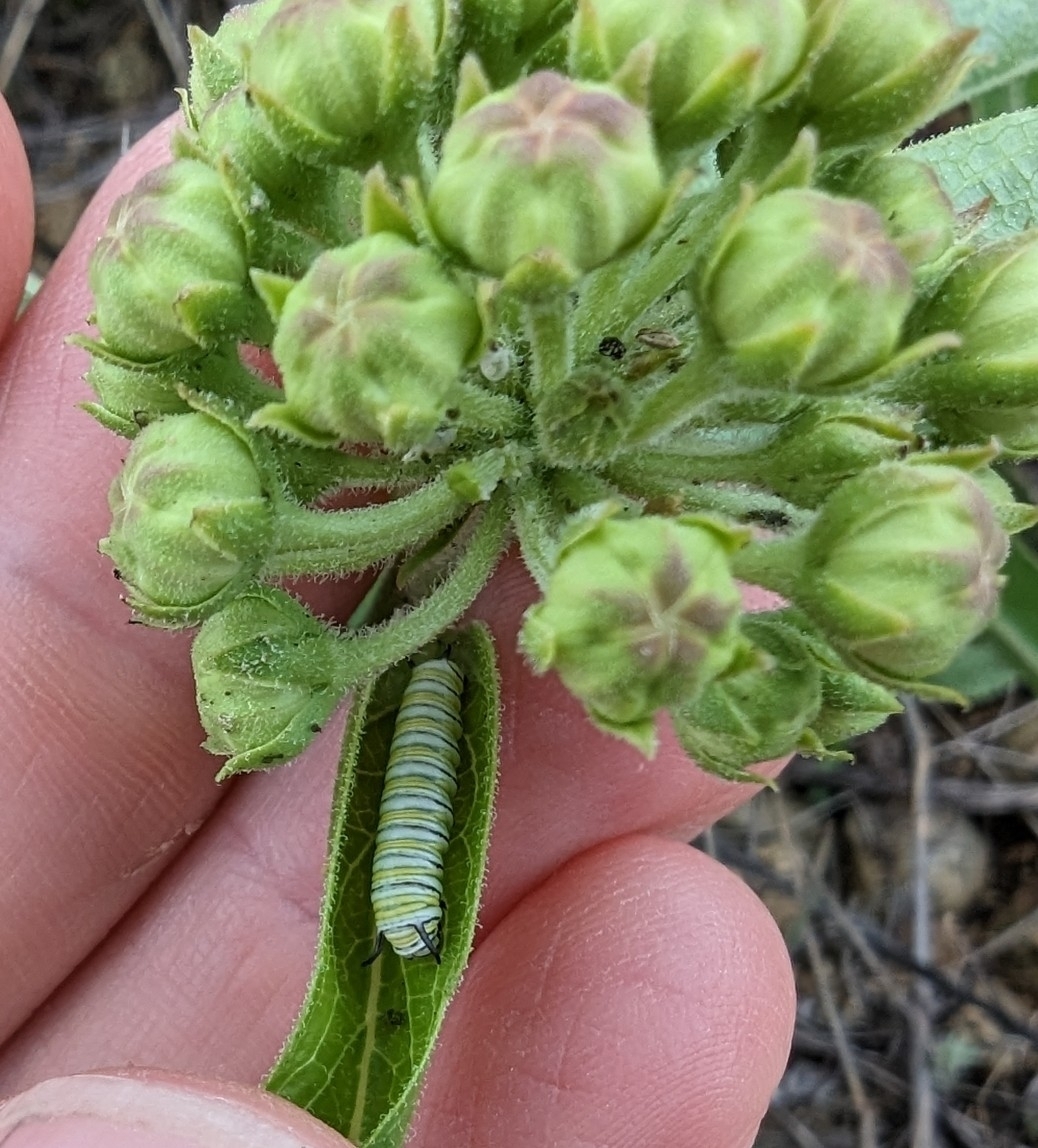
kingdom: Animalia
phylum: Arthropoda
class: Insecta
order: Lepidoptera
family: Nymphalidae
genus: Danaus
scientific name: Danaus plexippus
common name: Monarch
